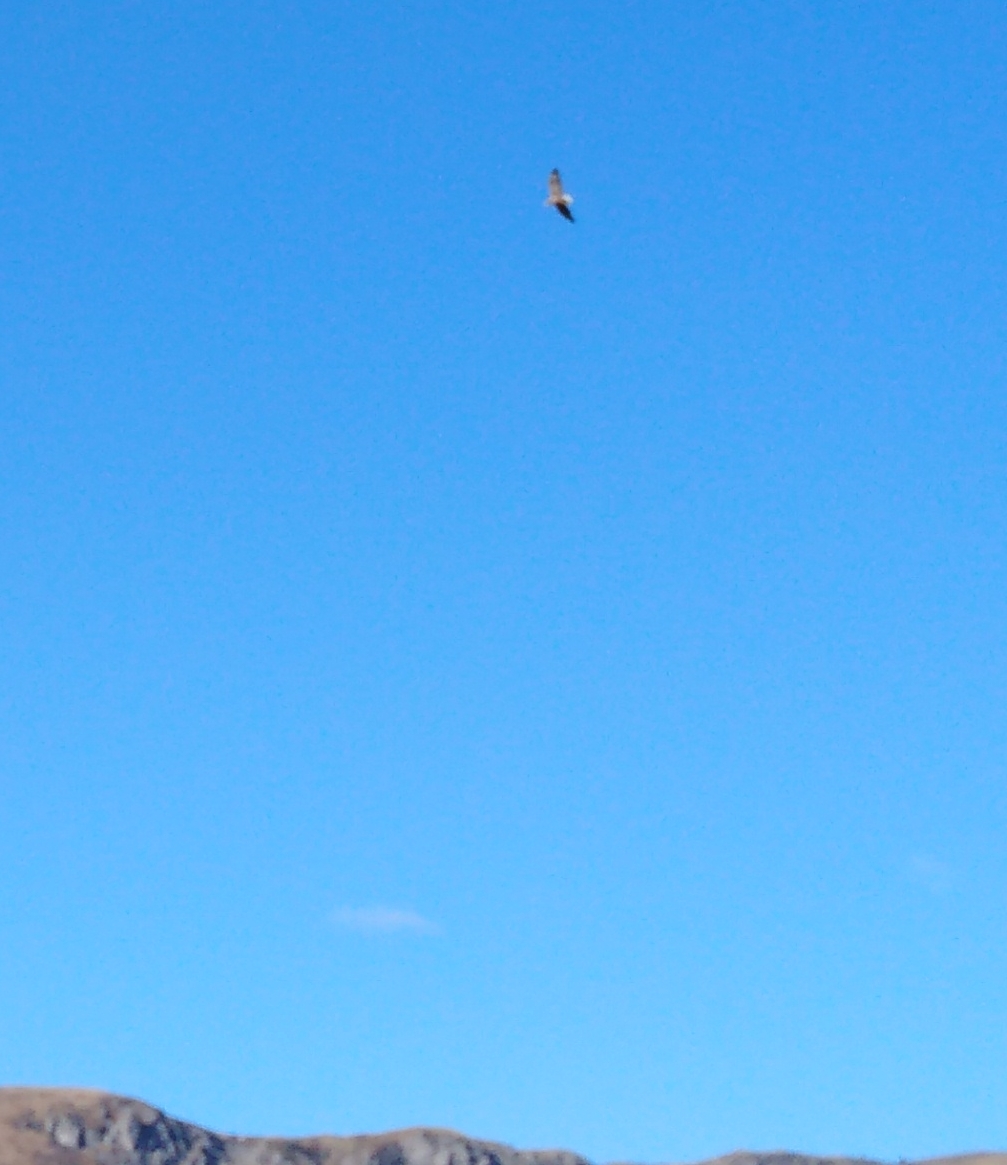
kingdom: Animalia
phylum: Chordata
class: Aves
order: Accipitriformes
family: Accipitridae
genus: Haliaeetus
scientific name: Haliaeetus albicilla
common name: White-tailed eagle
